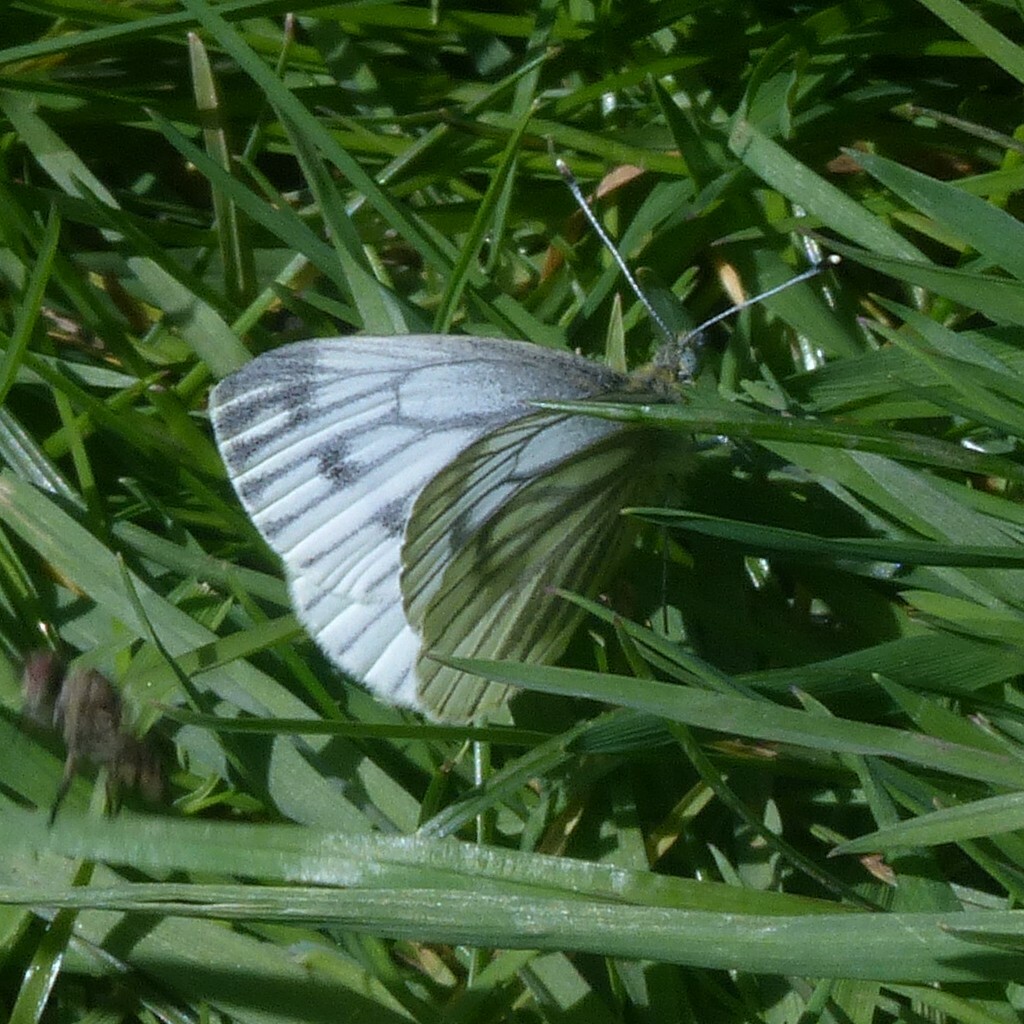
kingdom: Animalia
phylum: Arthropoda
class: Insecta
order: Lepidoptera
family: Pieridae
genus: Pieris
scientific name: Pieris napi
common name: Green-veined white
